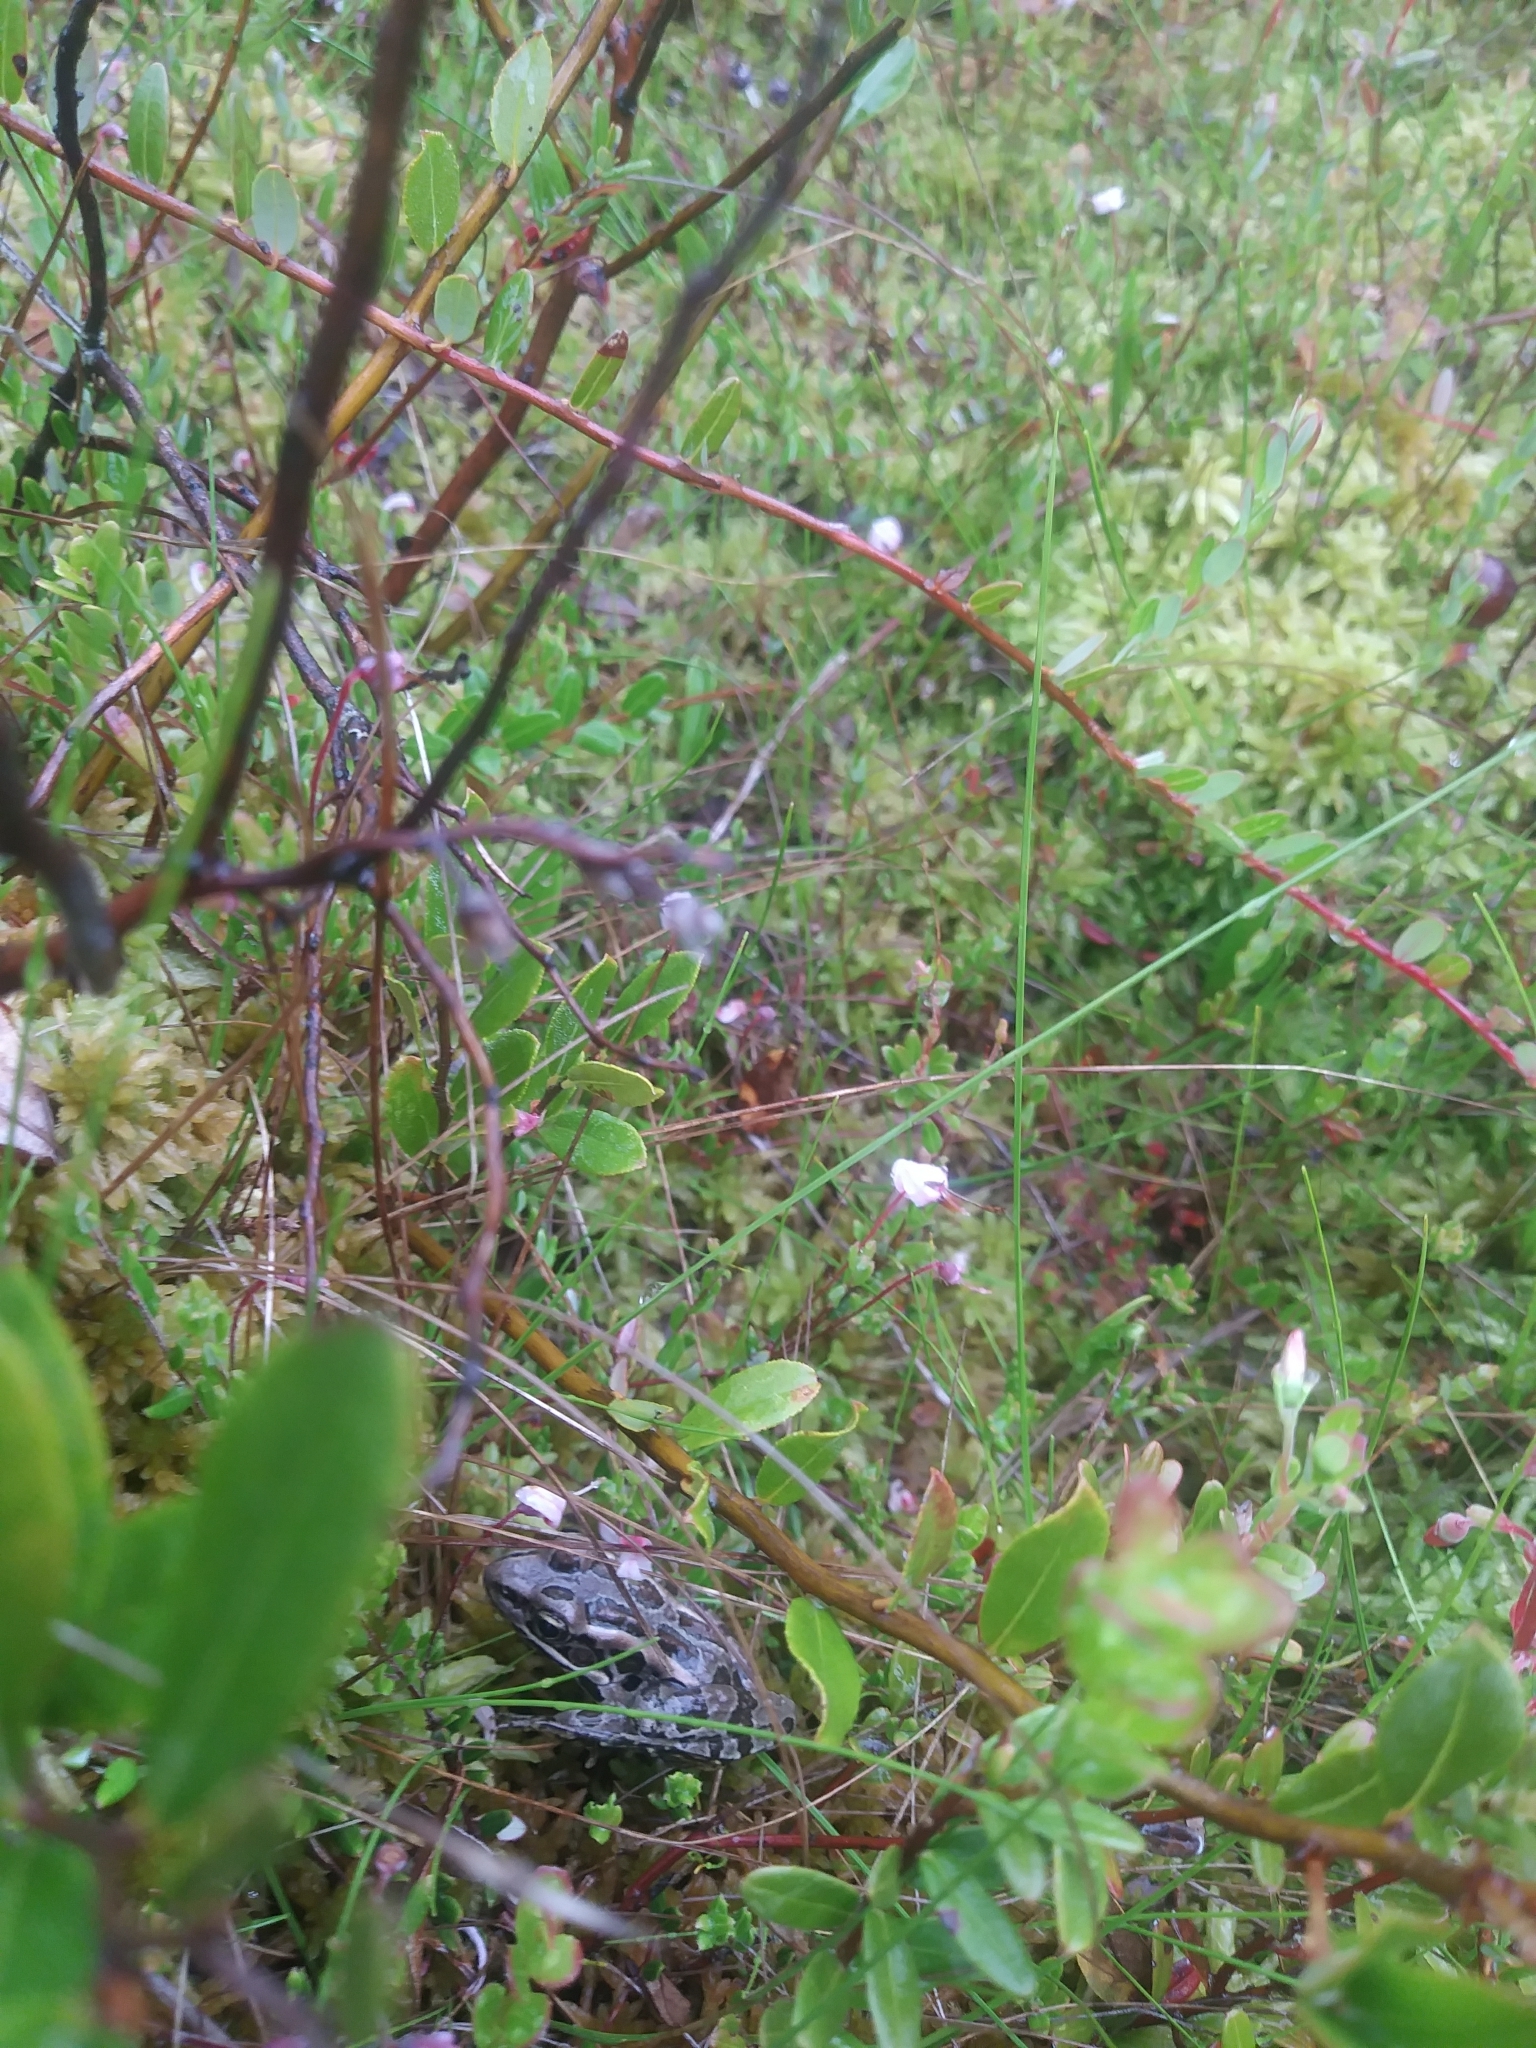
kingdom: Animalia
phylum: Chordata
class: Amphibia
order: Anura
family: Ranidae
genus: Lithobates
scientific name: Lithobates palustris
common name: Pickerel frog
